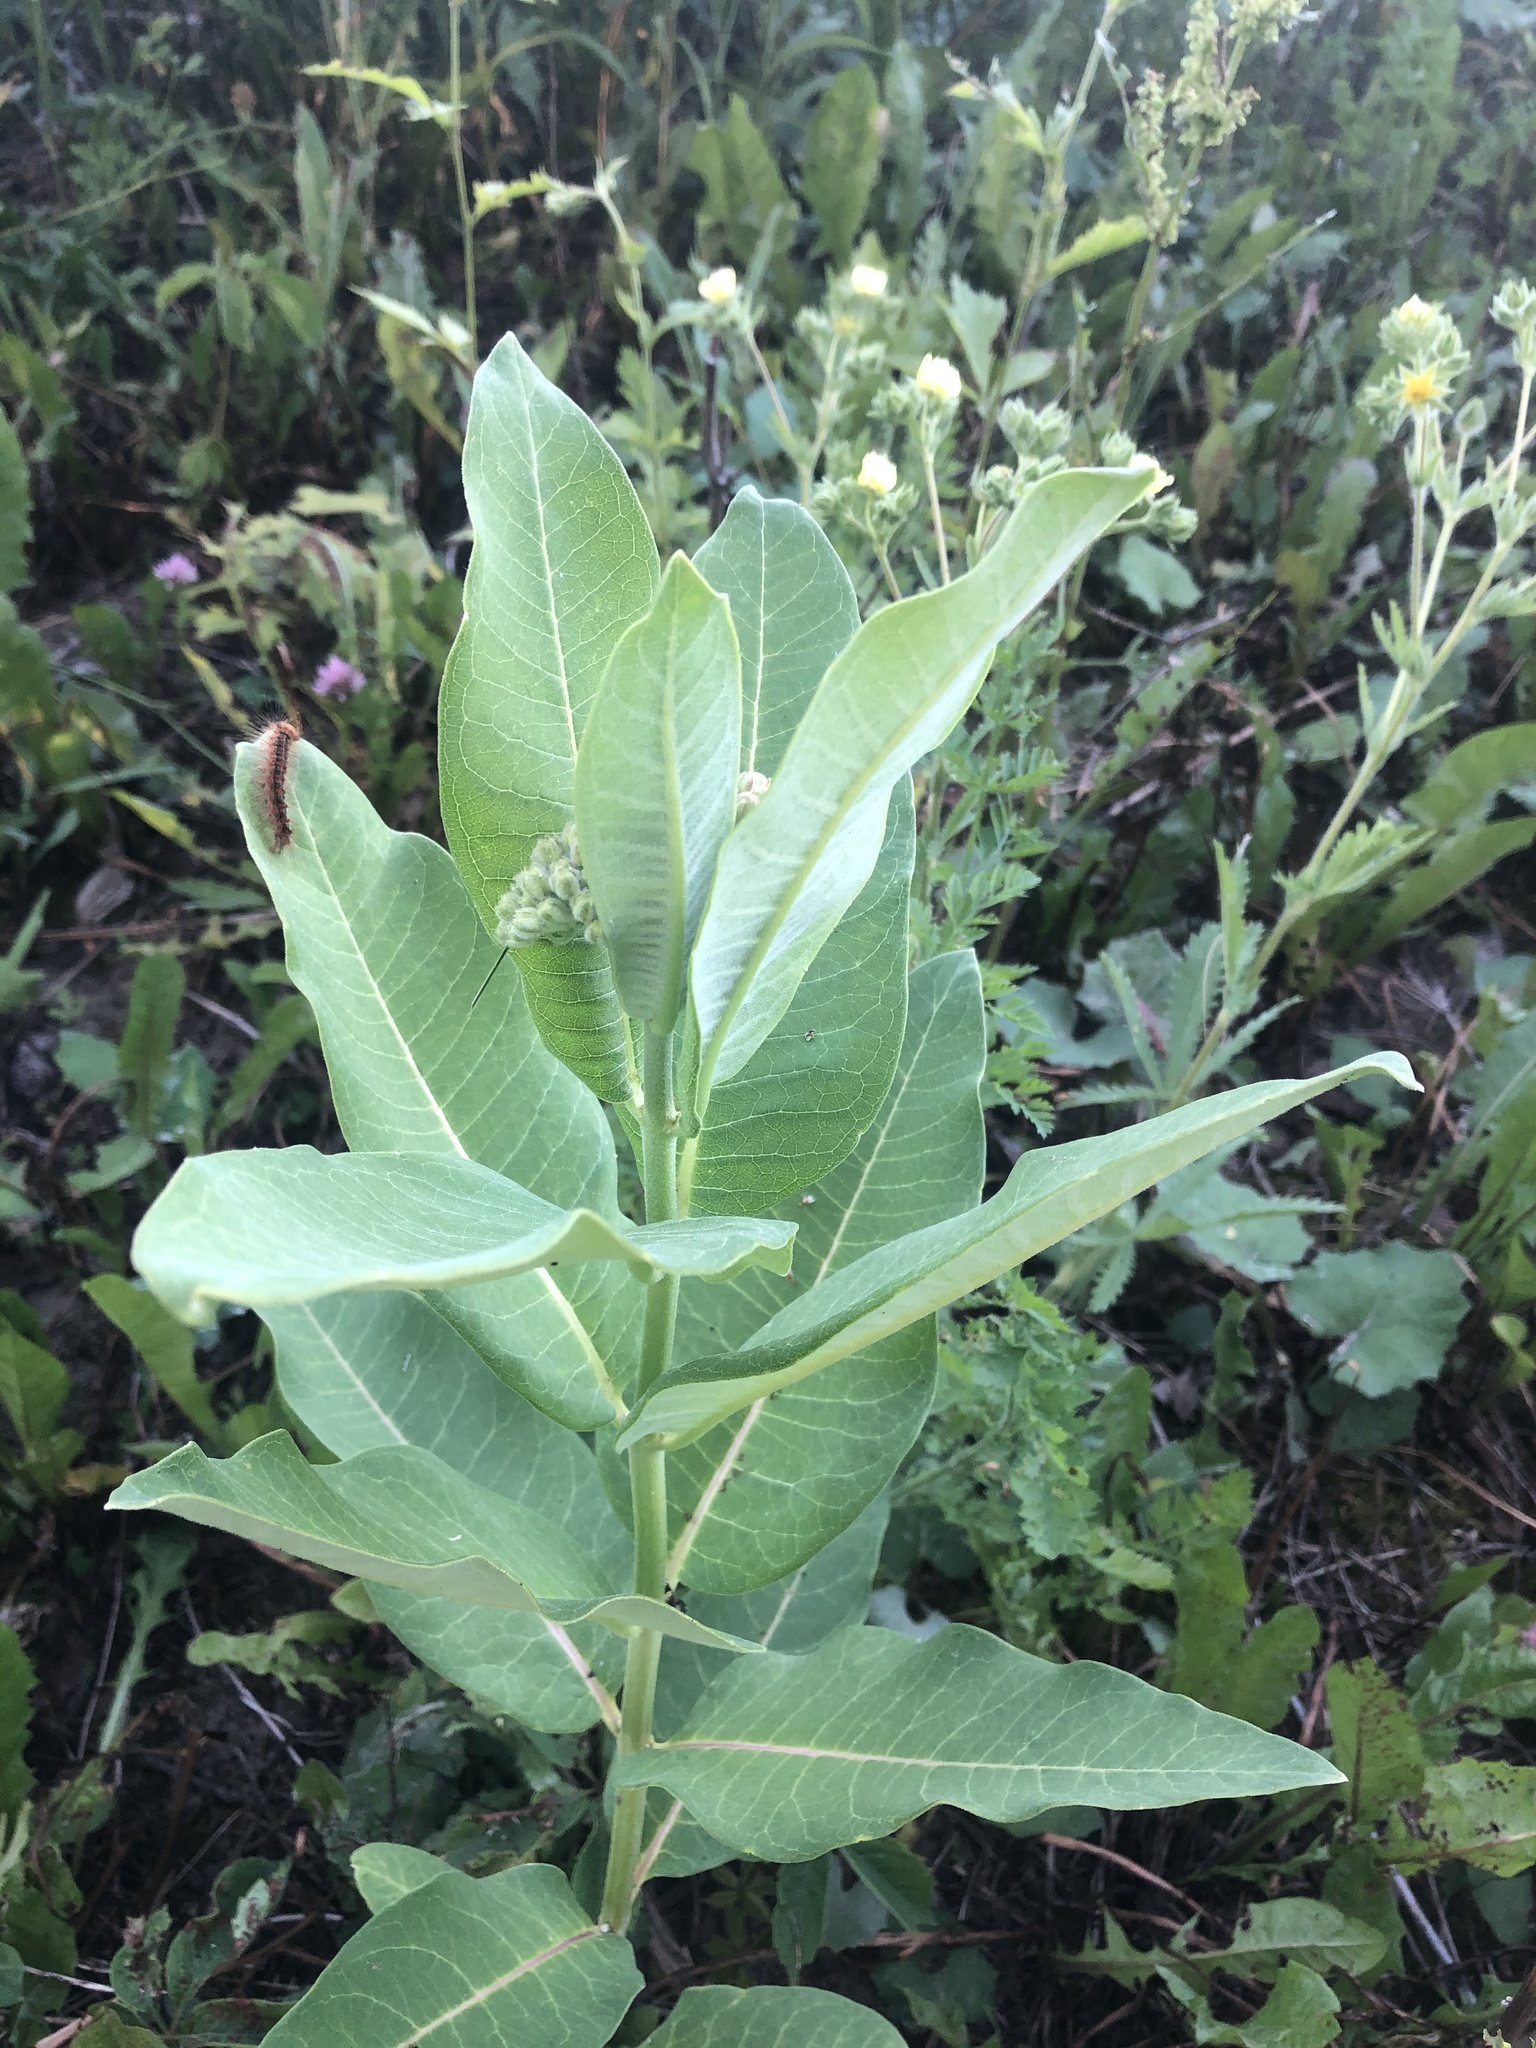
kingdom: Plantae
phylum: Tracheophyta
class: Magnoliopsida
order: Gentianales
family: Apocynaceae
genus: Asclepias
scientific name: Asclepias syriaca
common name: Common milkweed
